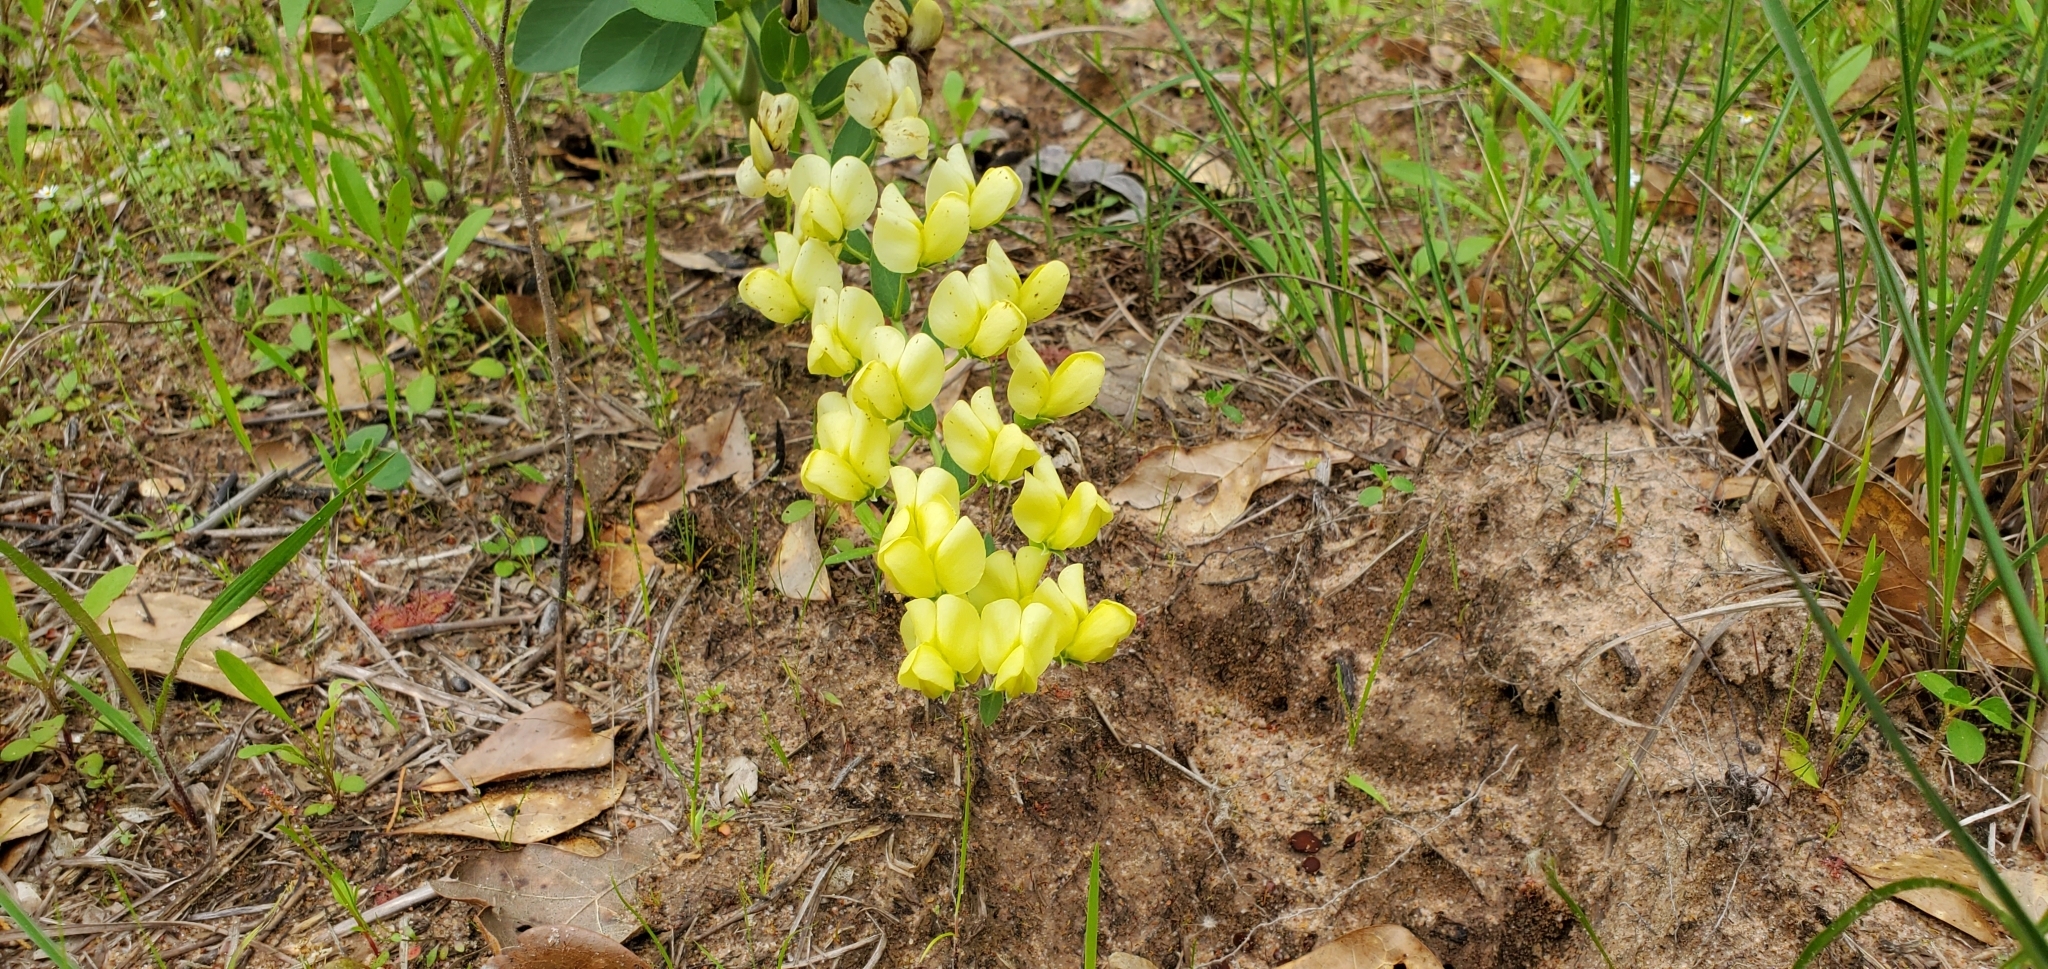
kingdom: Plantae
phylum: Tracheophyta
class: Magnoliopsida
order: Fabales
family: Fabaceae
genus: Baptisia
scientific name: Baptisia bracteata
